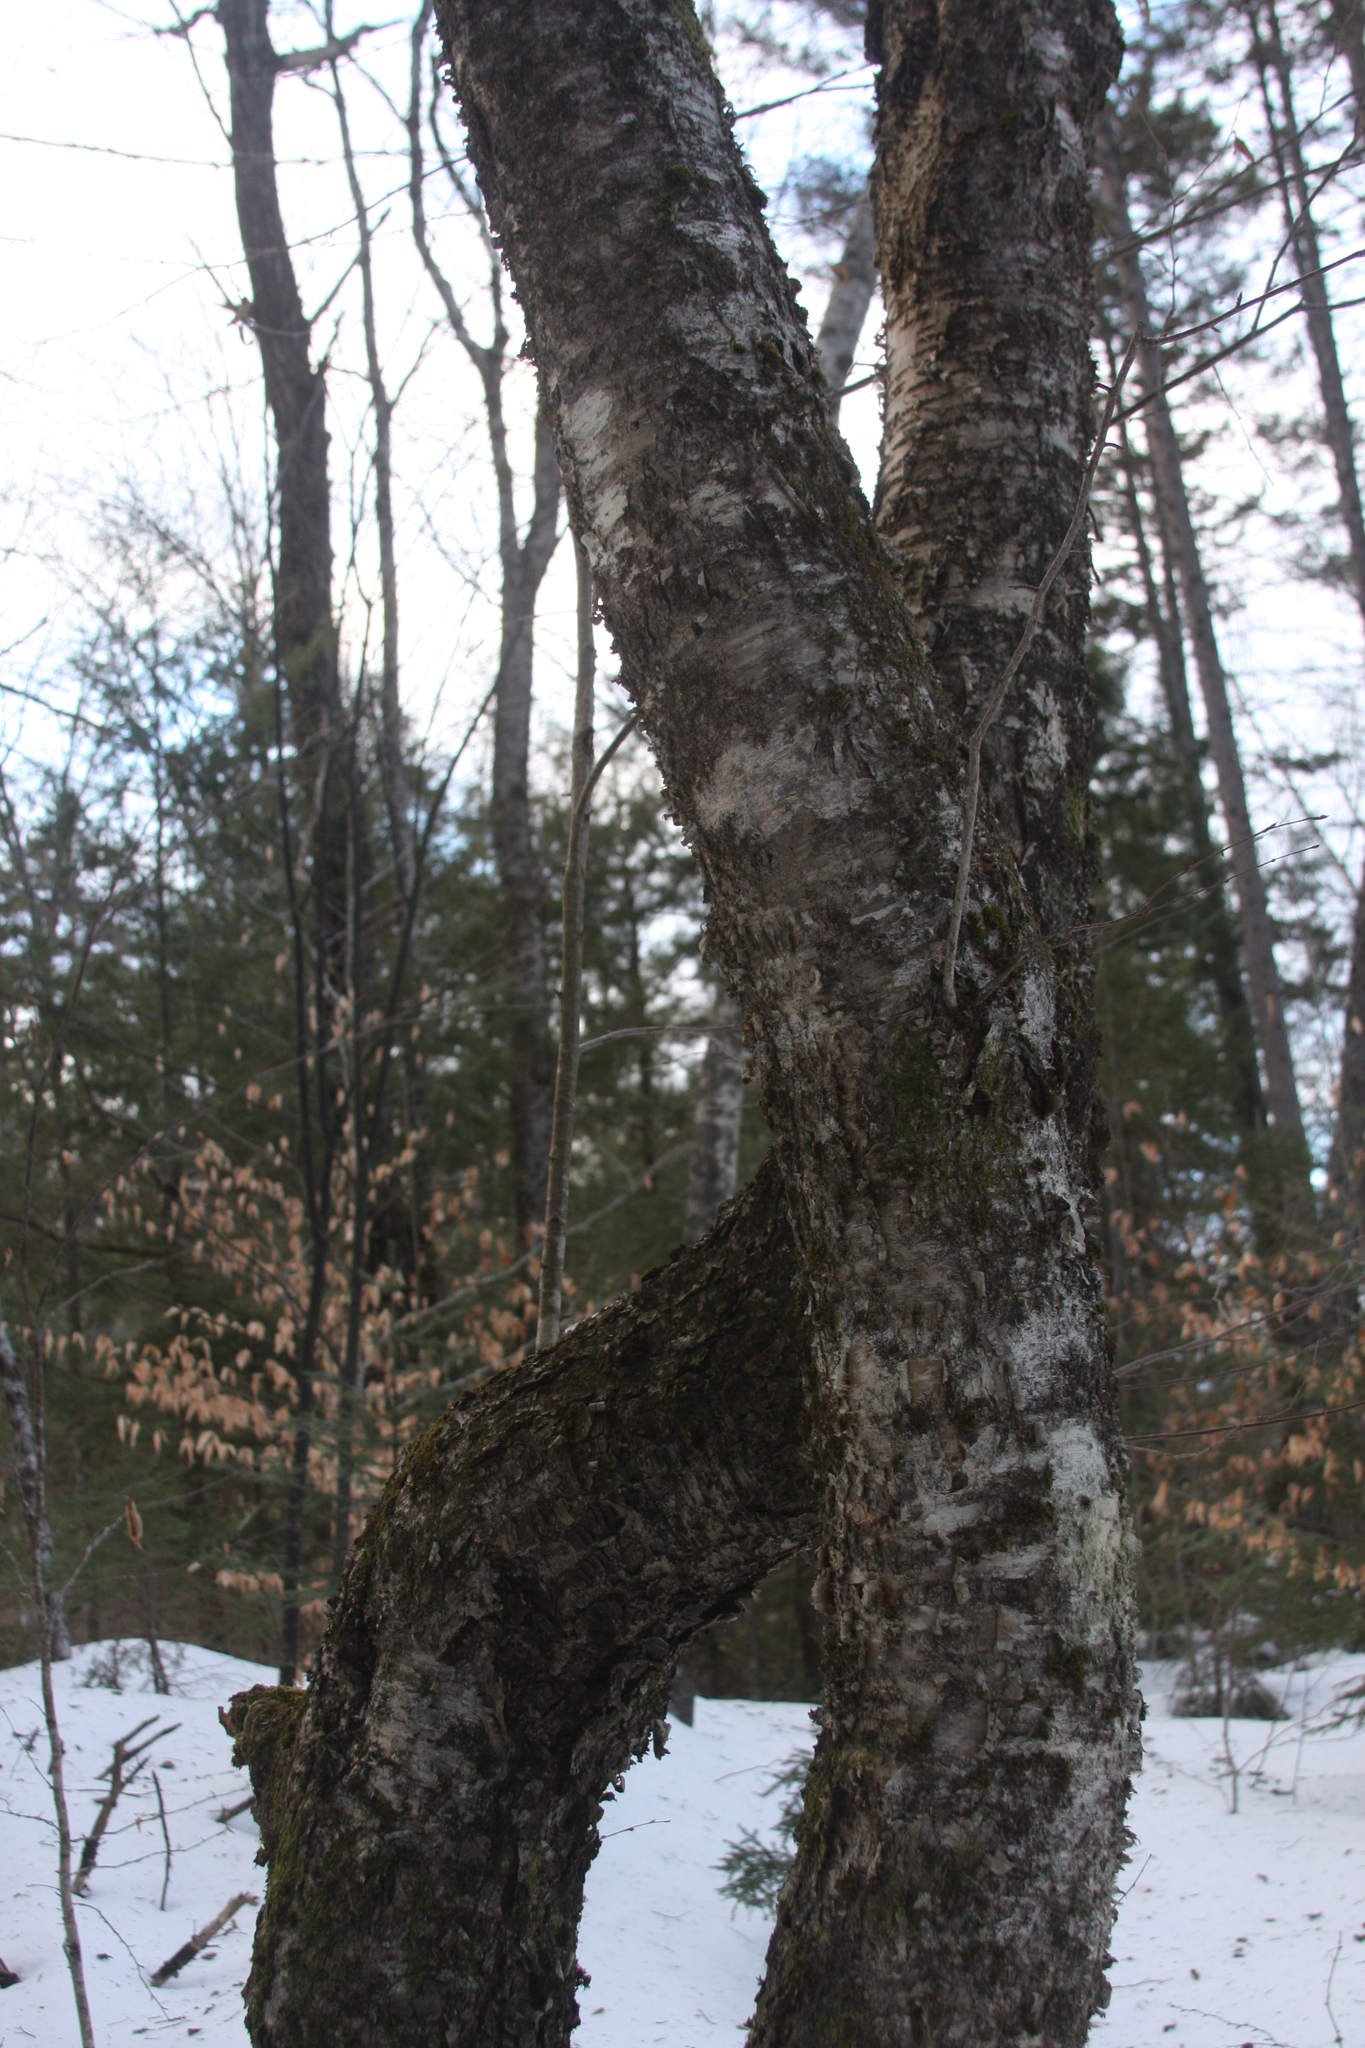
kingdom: Plantae
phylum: Tracheophyta
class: Magnoliopsida
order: Fagales
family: Betulaceae
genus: Betula
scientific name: Betula alleghaniensis
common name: Yellow birch
